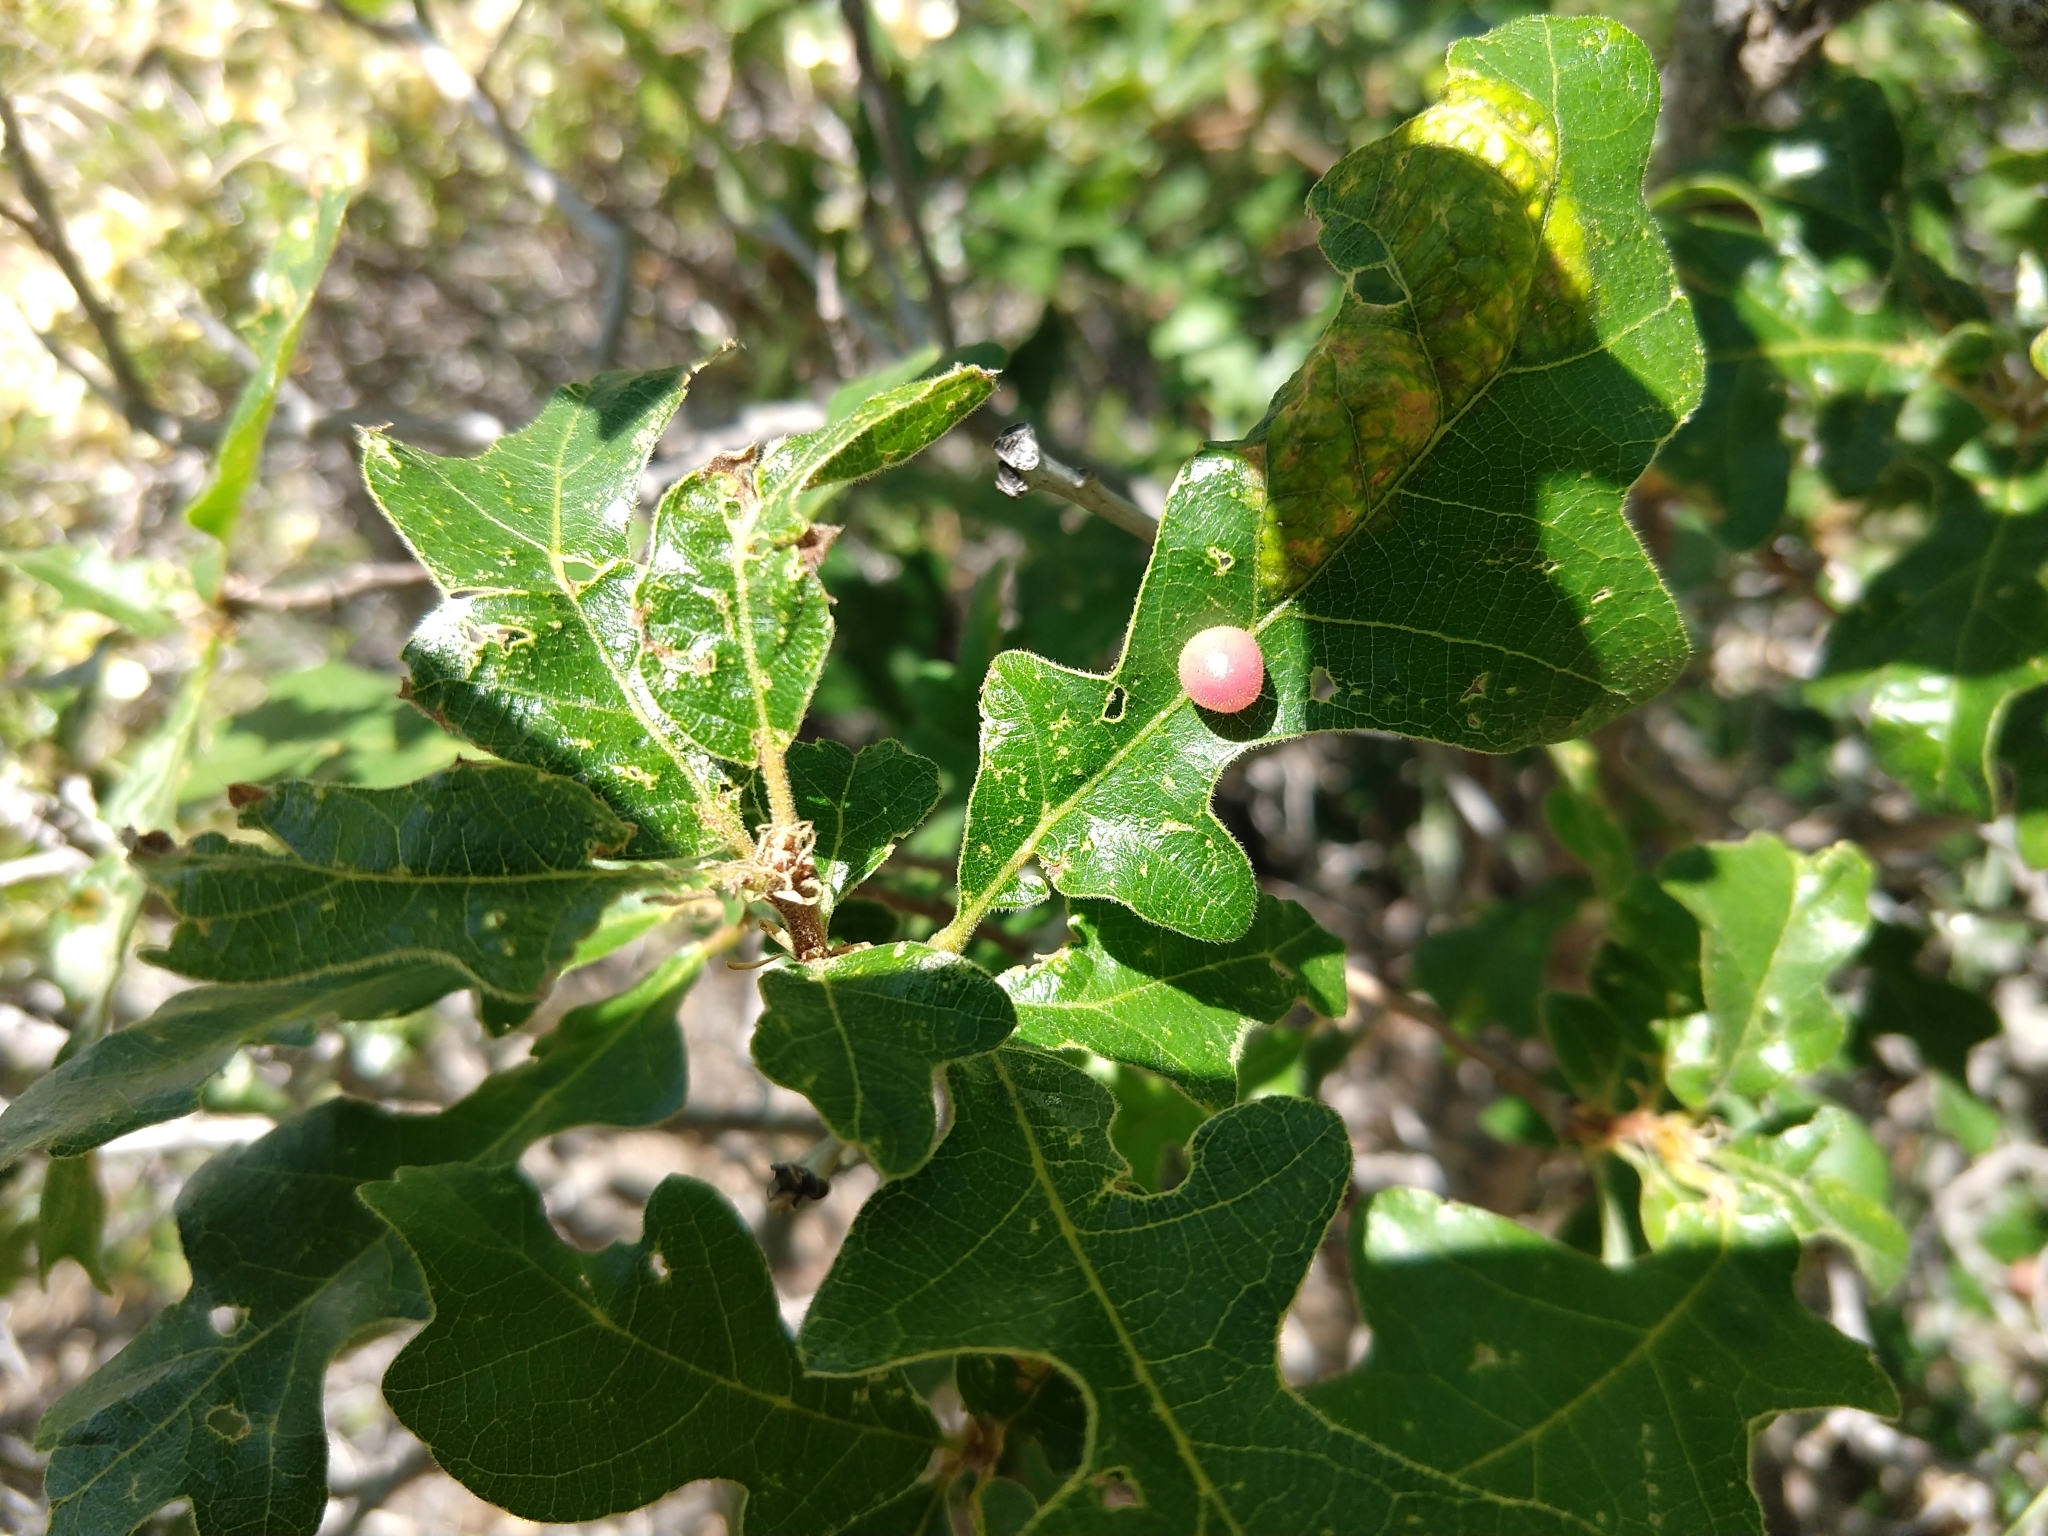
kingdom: Animalia
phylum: Arthropoda
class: Insecta
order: Hymenoptera
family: Cynipidae
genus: Trigonaspis
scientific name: Trigonaspis
